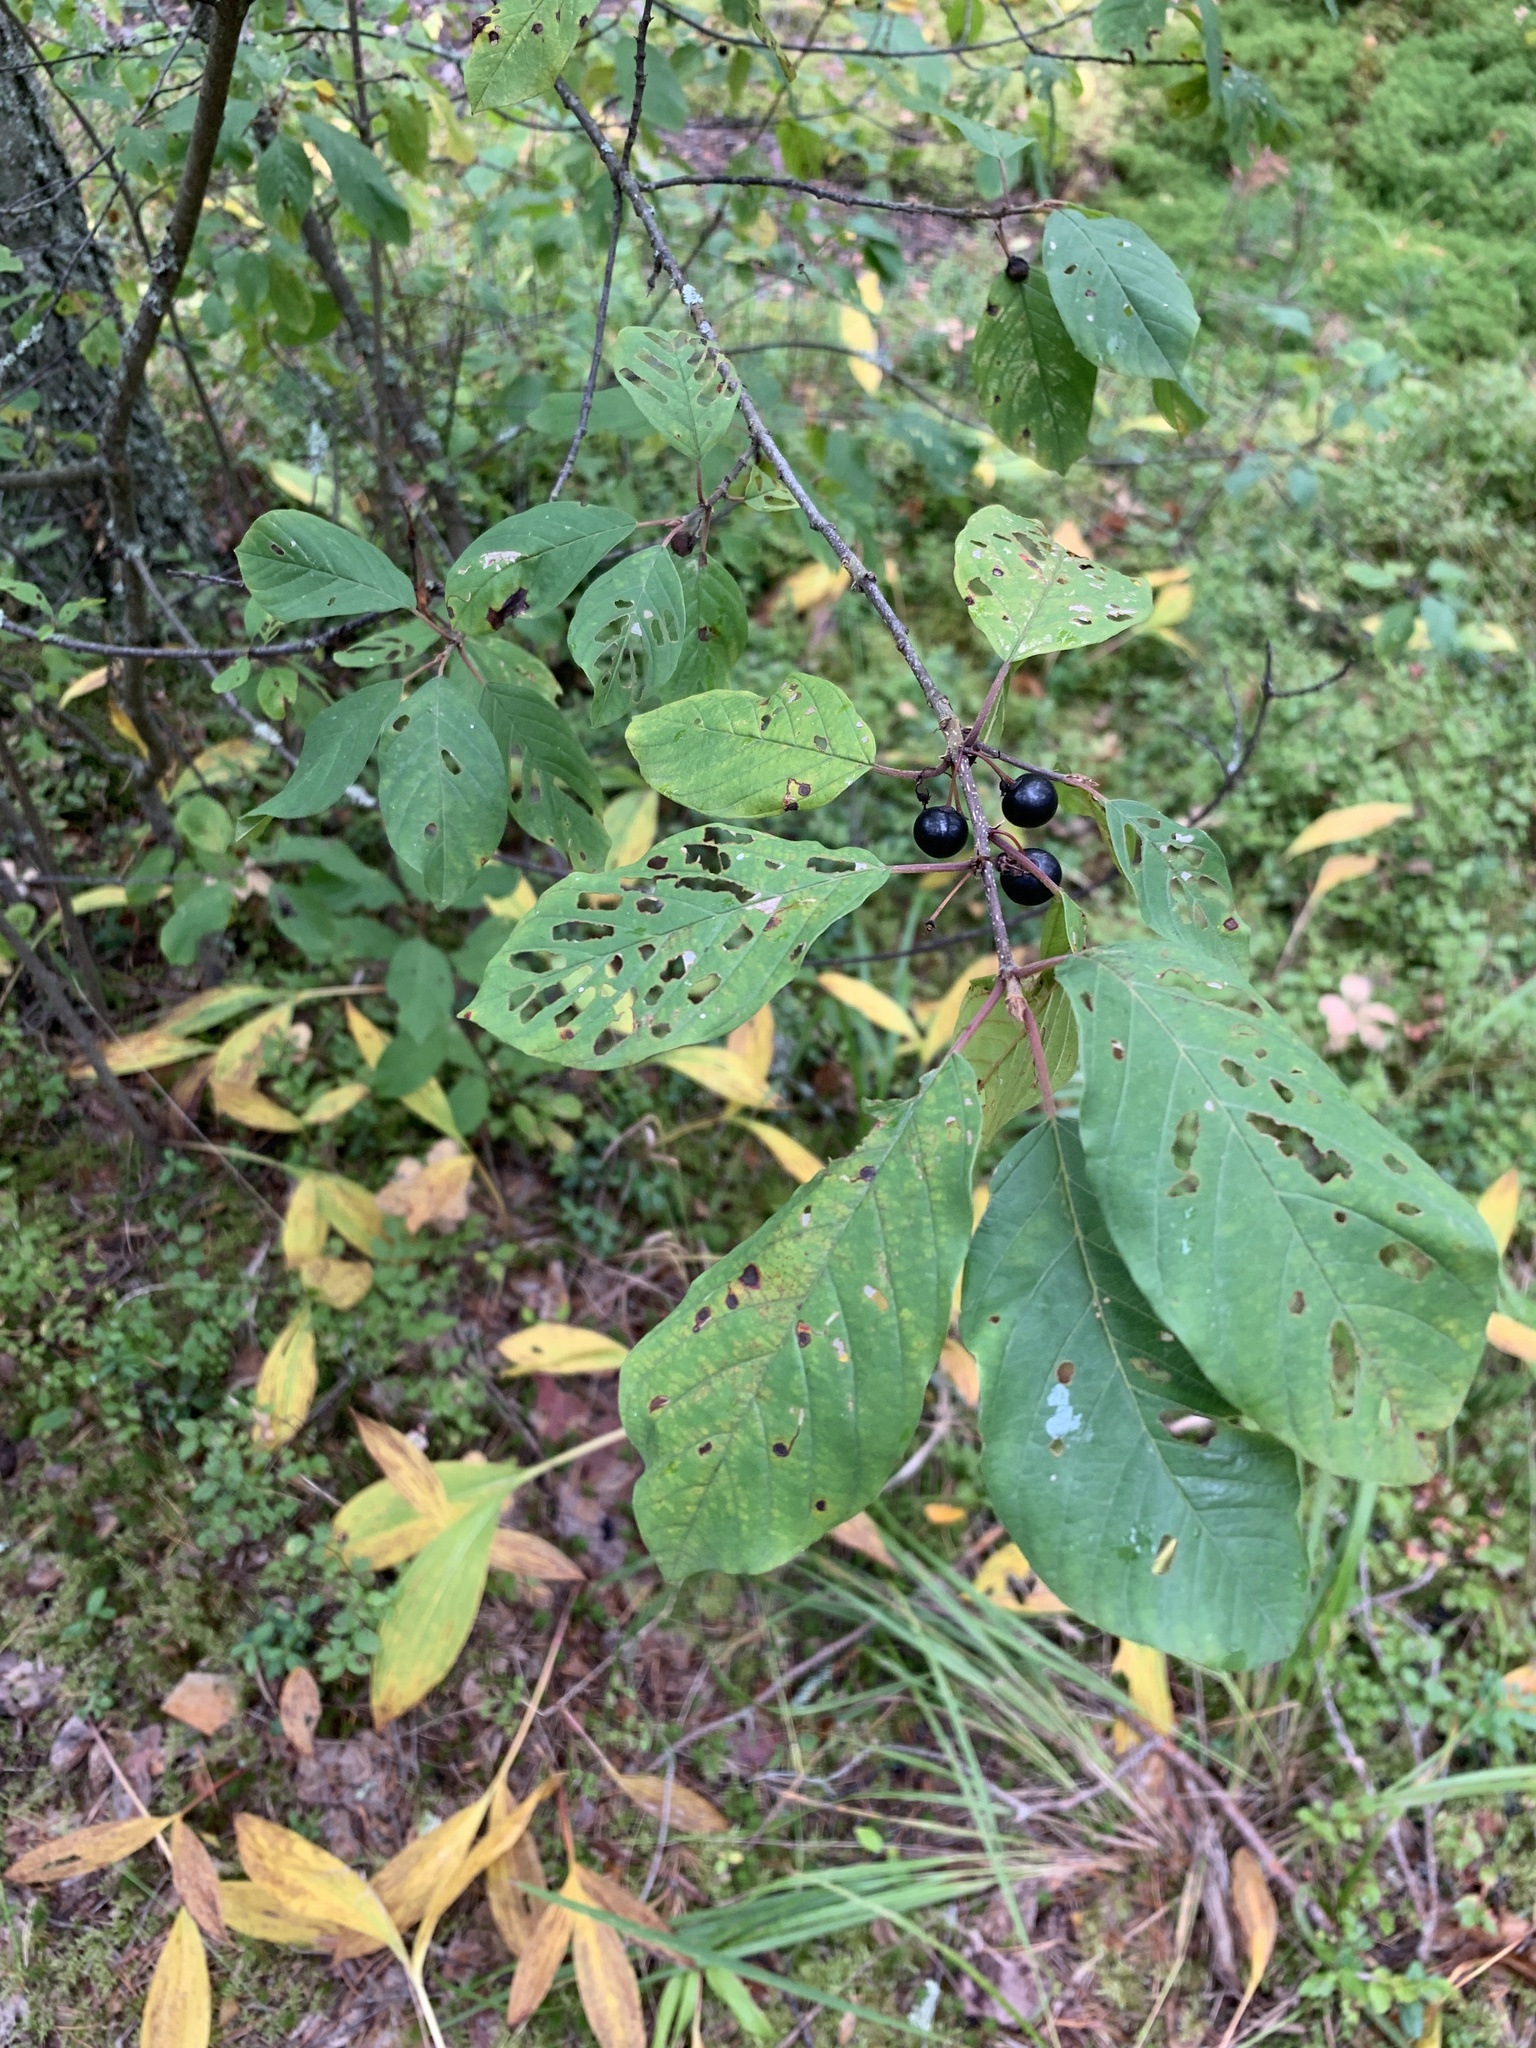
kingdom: Plantae
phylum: Tracheophyta
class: Magnoliopsida
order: Rosales
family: Rhamnaceae
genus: Frangula
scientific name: Frangula alnus
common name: Alder buckthorn
